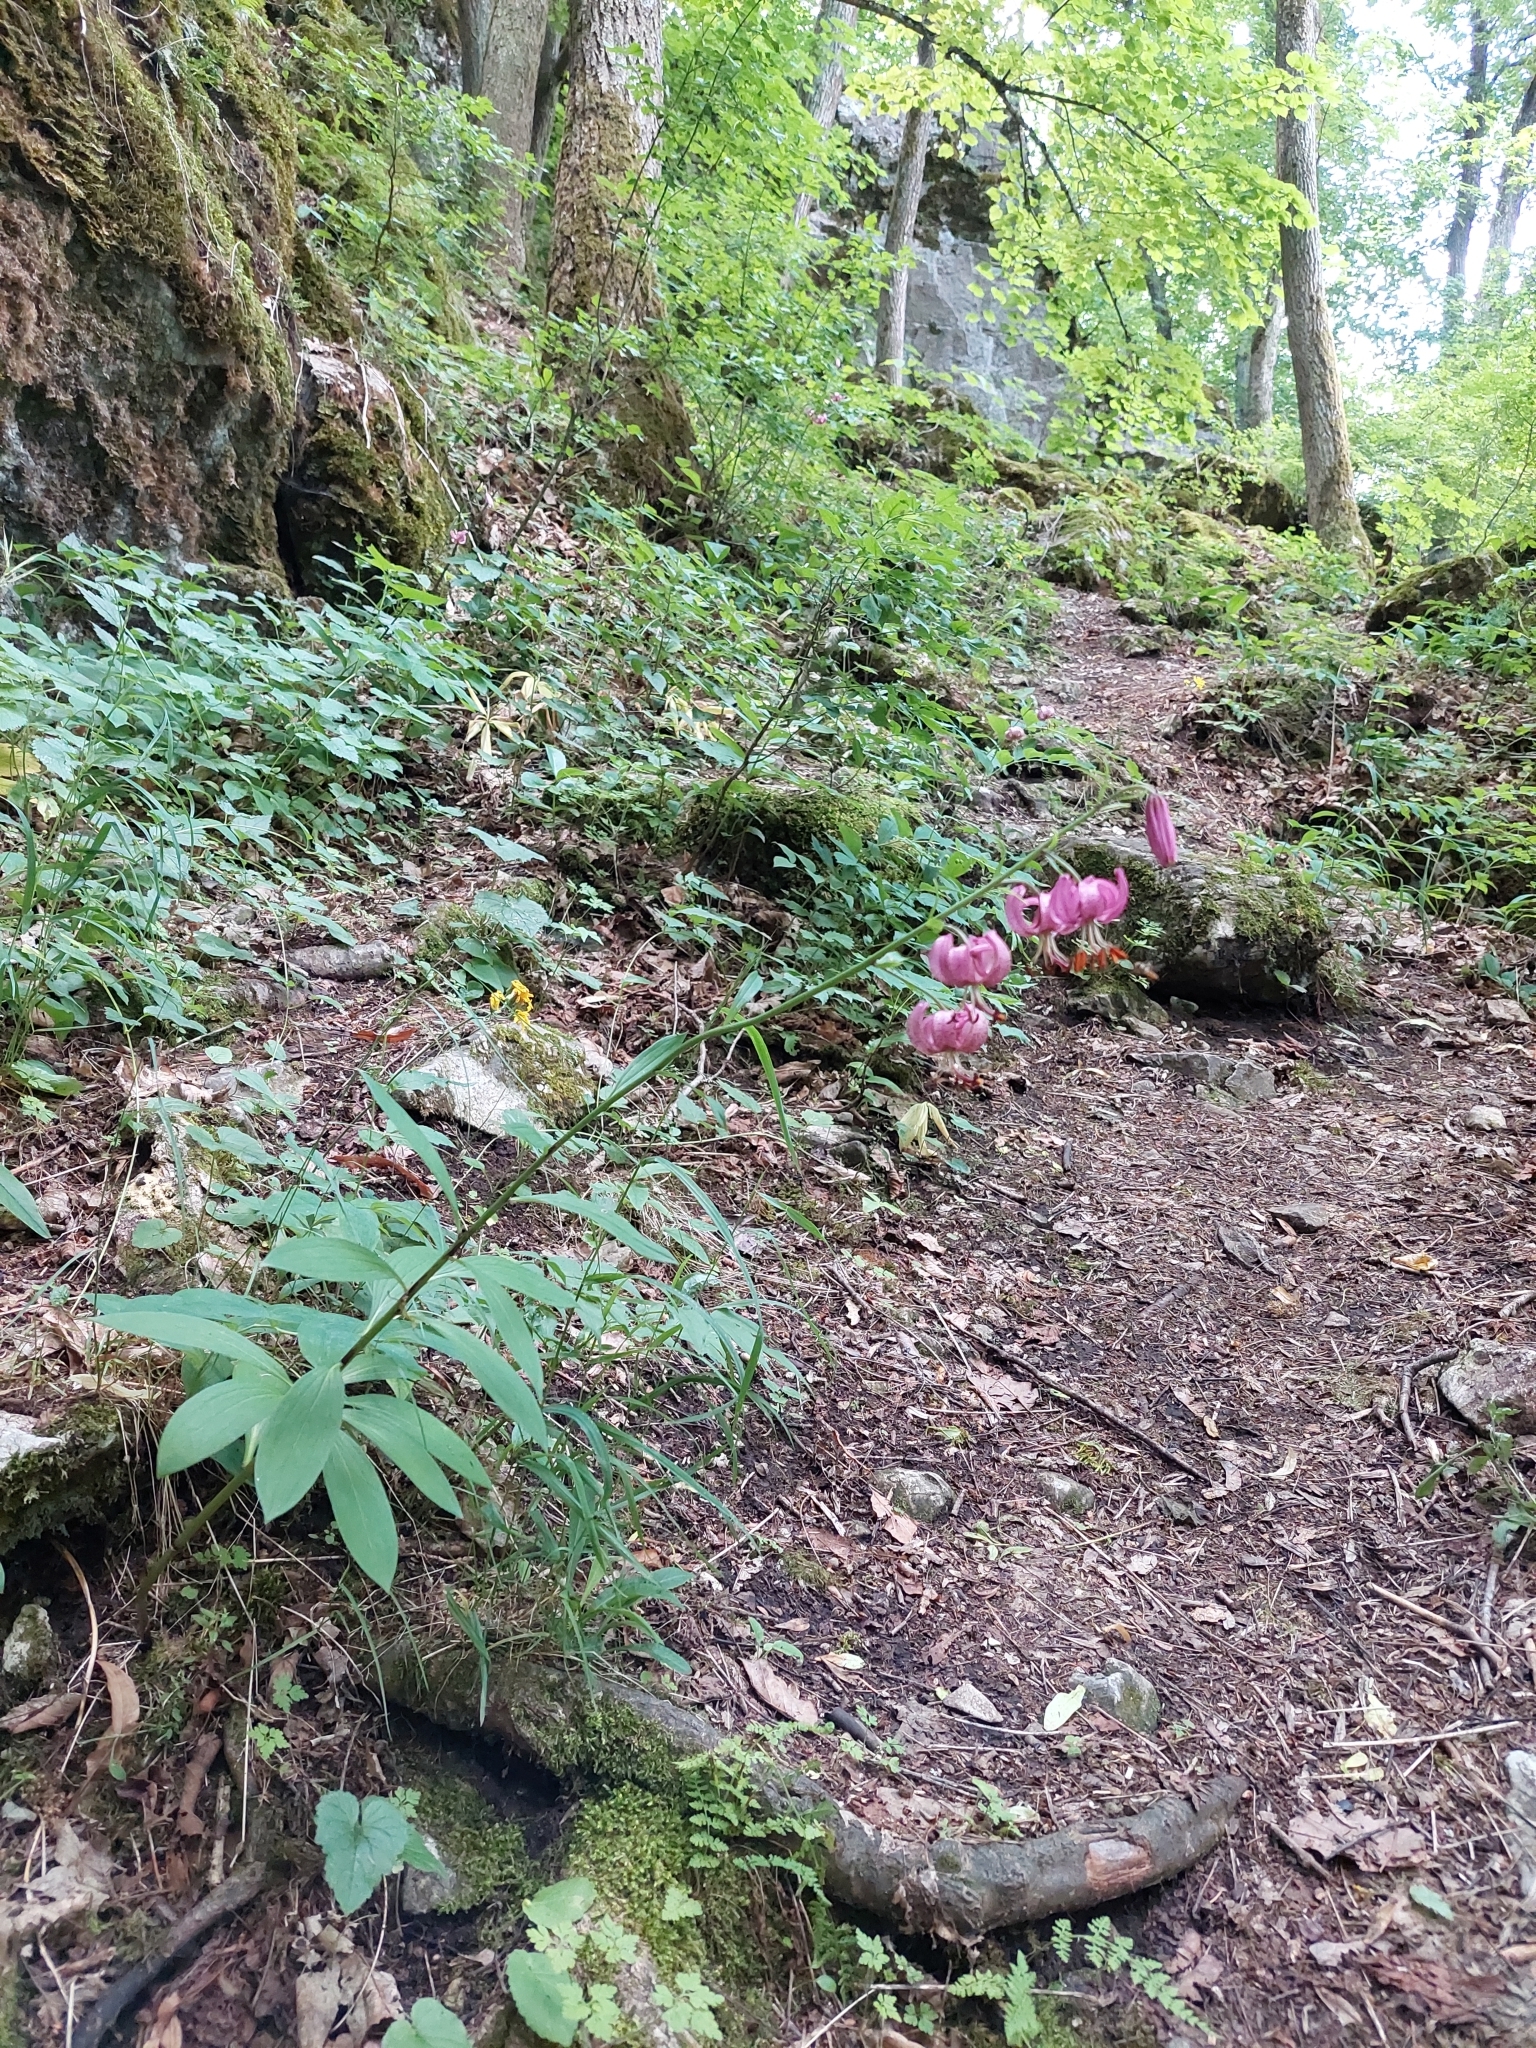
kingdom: Plantae
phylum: Tracheophyta
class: Liliopsida
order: Liliales
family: Liliaceae
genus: Lilium
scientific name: Lilium martagon
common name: Martagon lily
